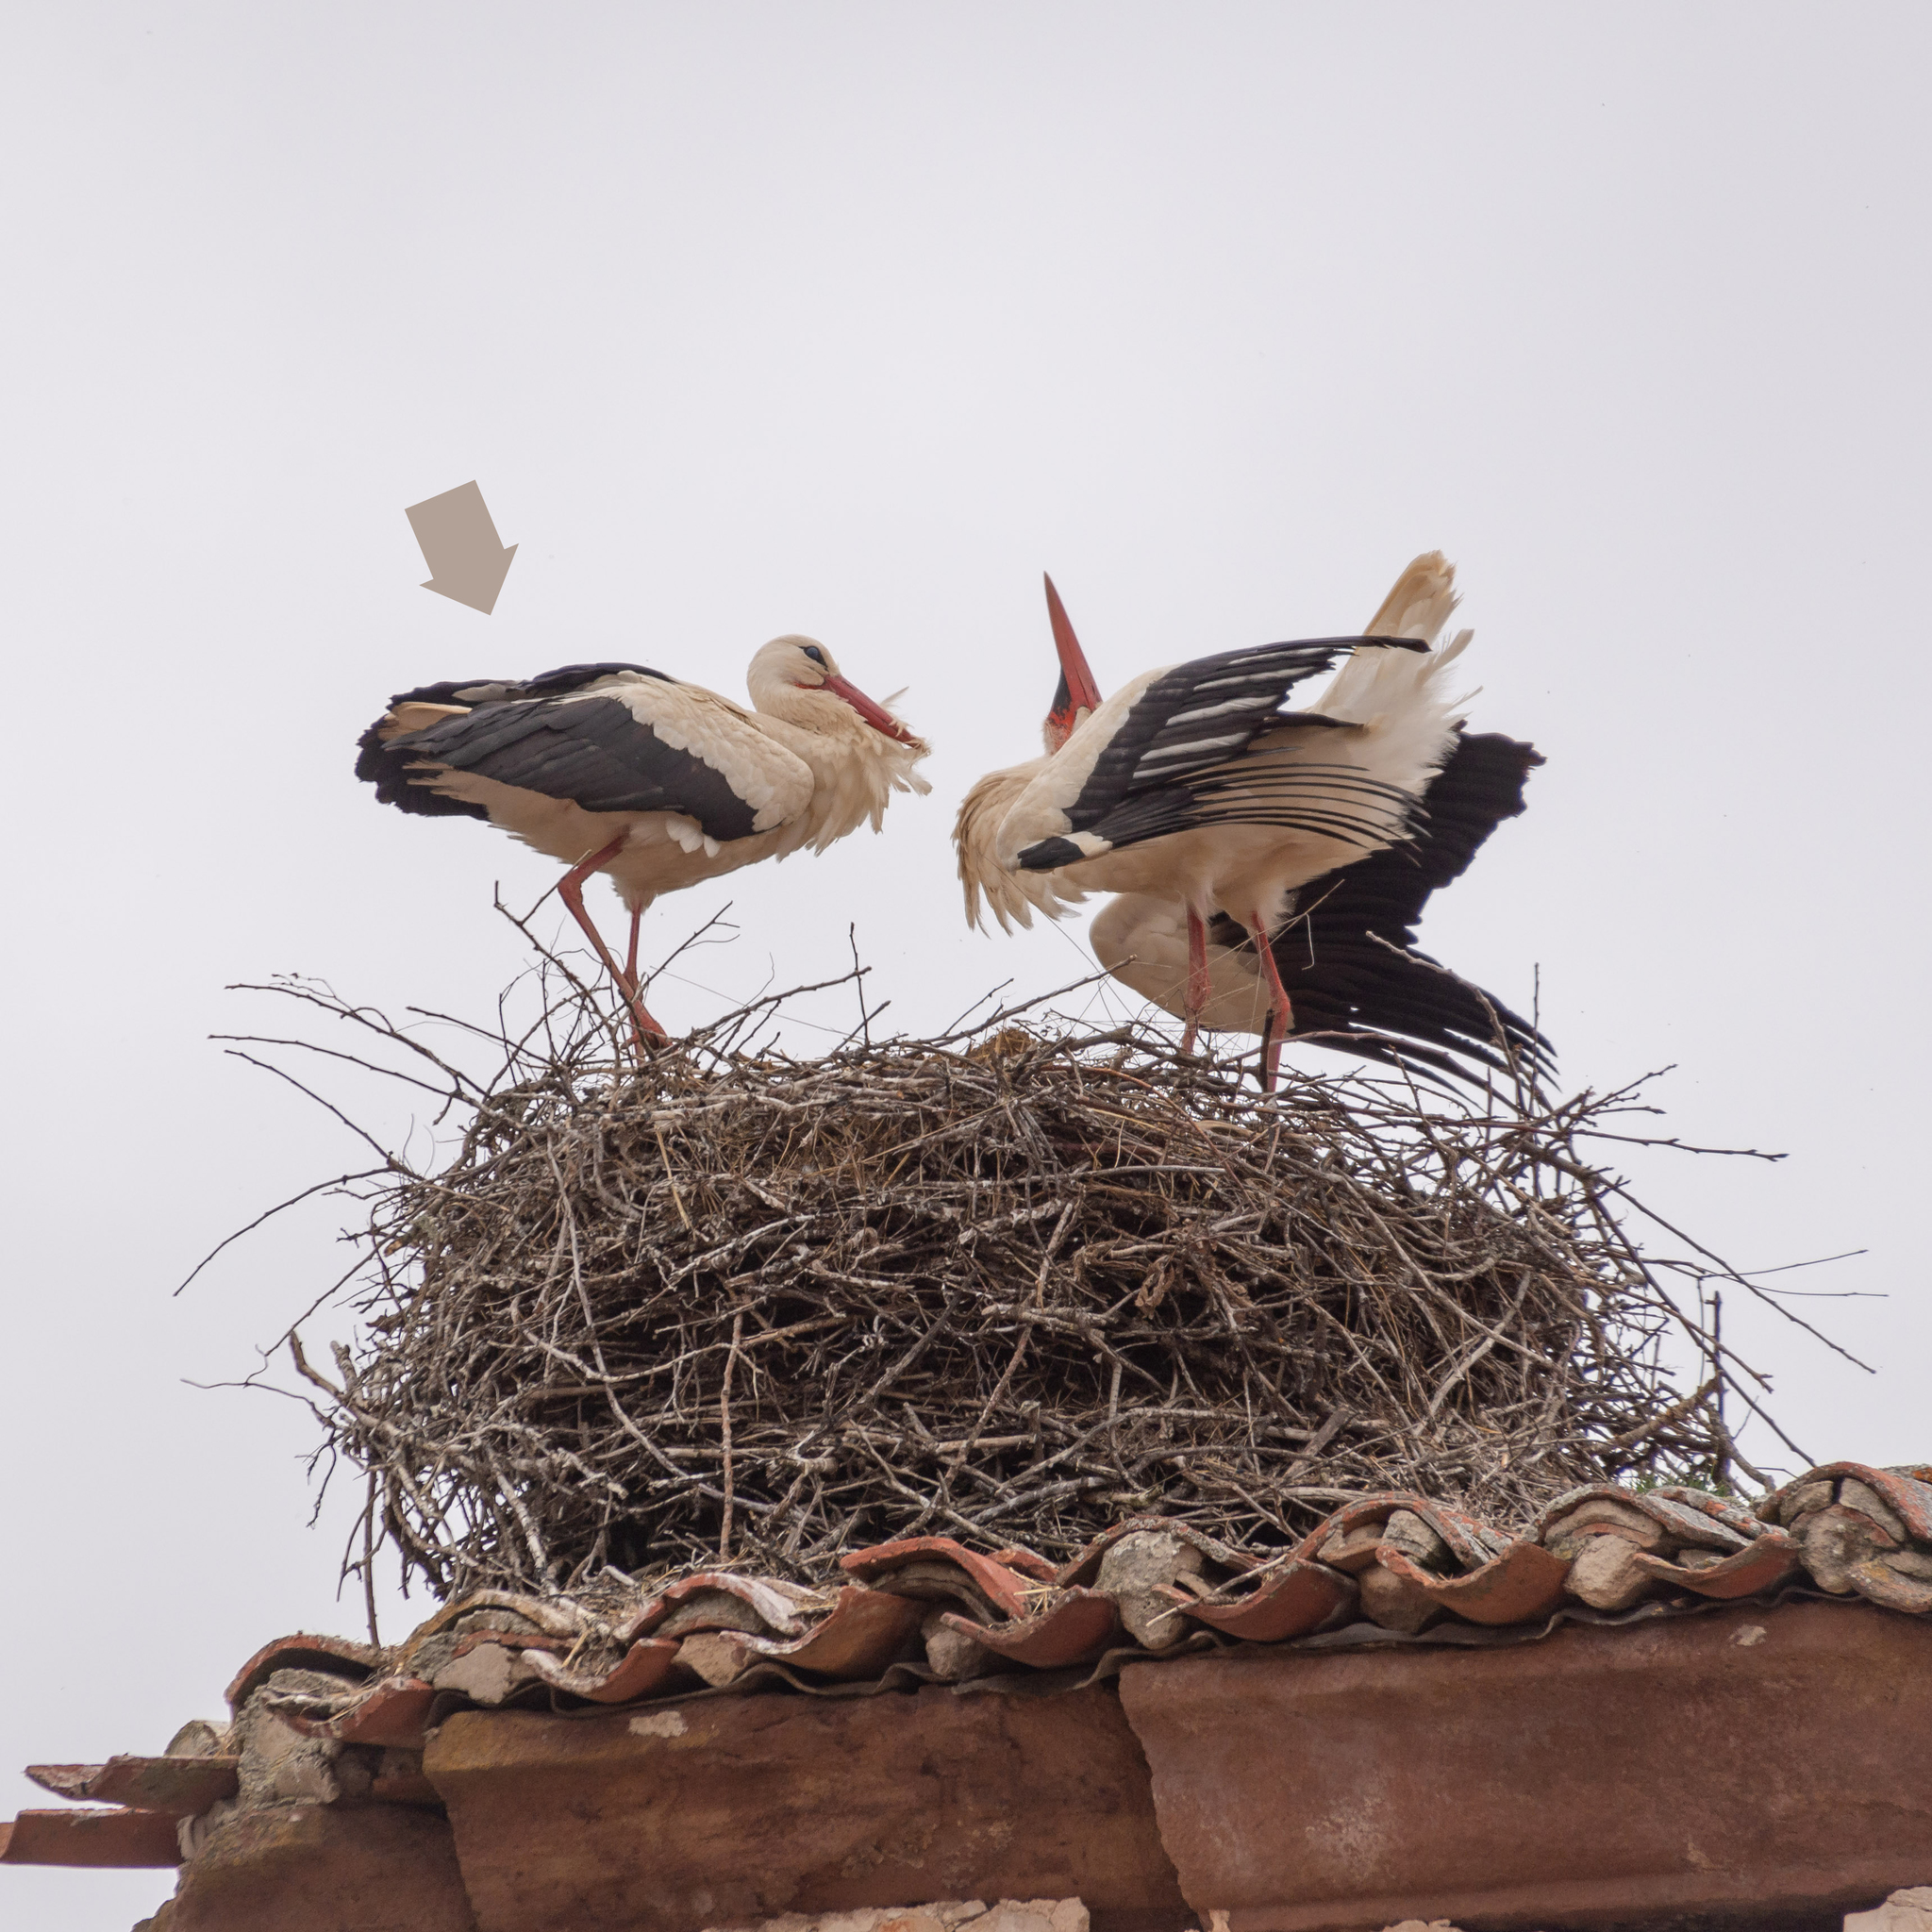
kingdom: Animalia
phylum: Chordata
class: Aves
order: Ciconiiformes
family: Ciconiidae
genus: Ciconia
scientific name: Ciconia ciconia
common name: White stork
